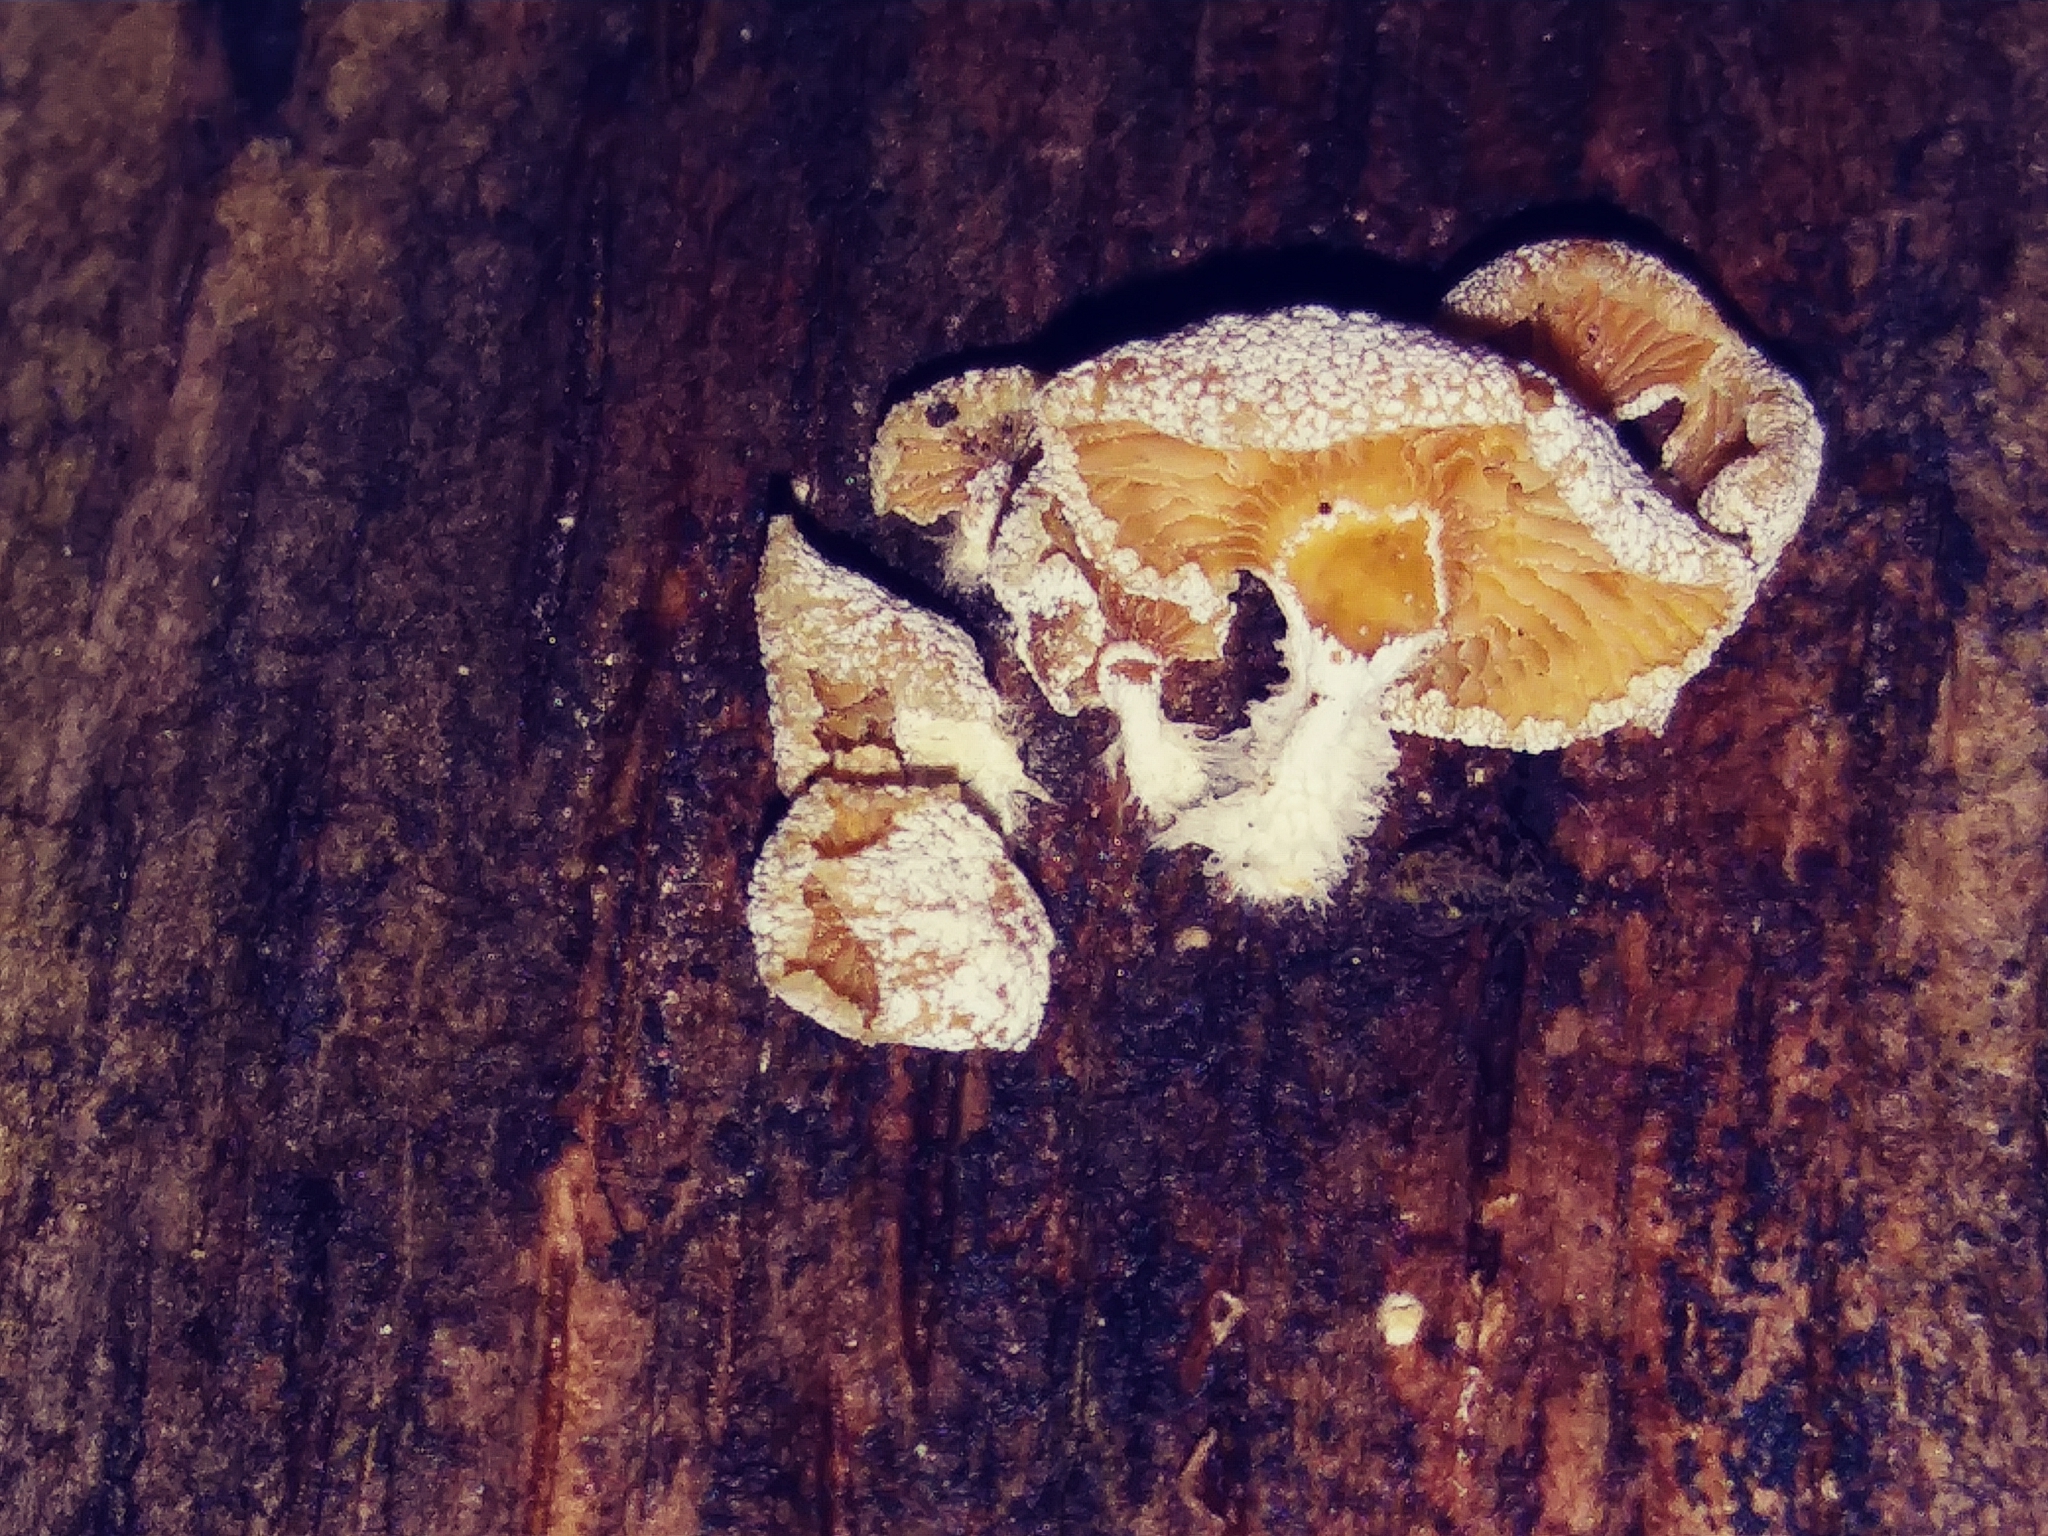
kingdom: Fungi
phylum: Basidiomycota
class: Agaricomycetes
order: Agaricales
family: Mycenaceae
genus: Panellus
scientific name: Panellus stipticus
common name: Bitter oysterling
